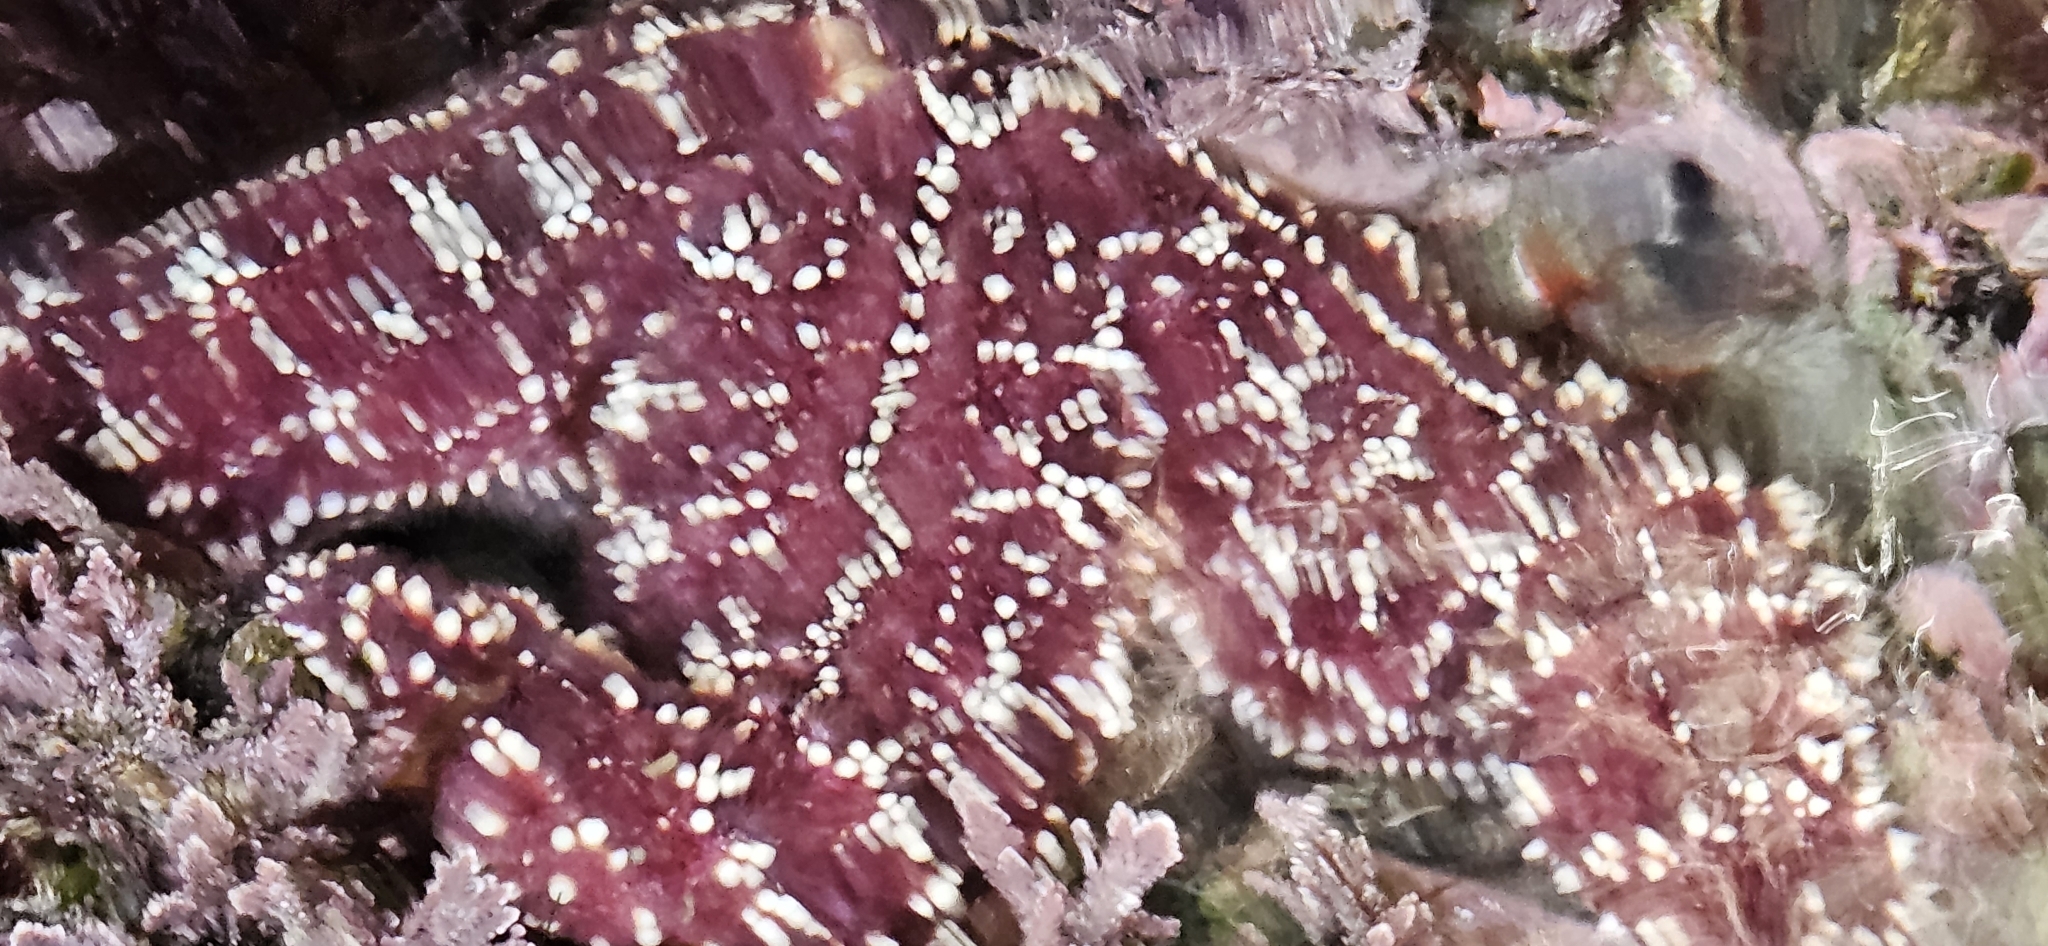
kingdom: Animalia
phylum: Echinodermata
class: Asteroidea
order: Forcipulatida
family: Asteriidae
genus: Pisaster
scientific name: Pisaster ochraceus
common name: Ochre stars
